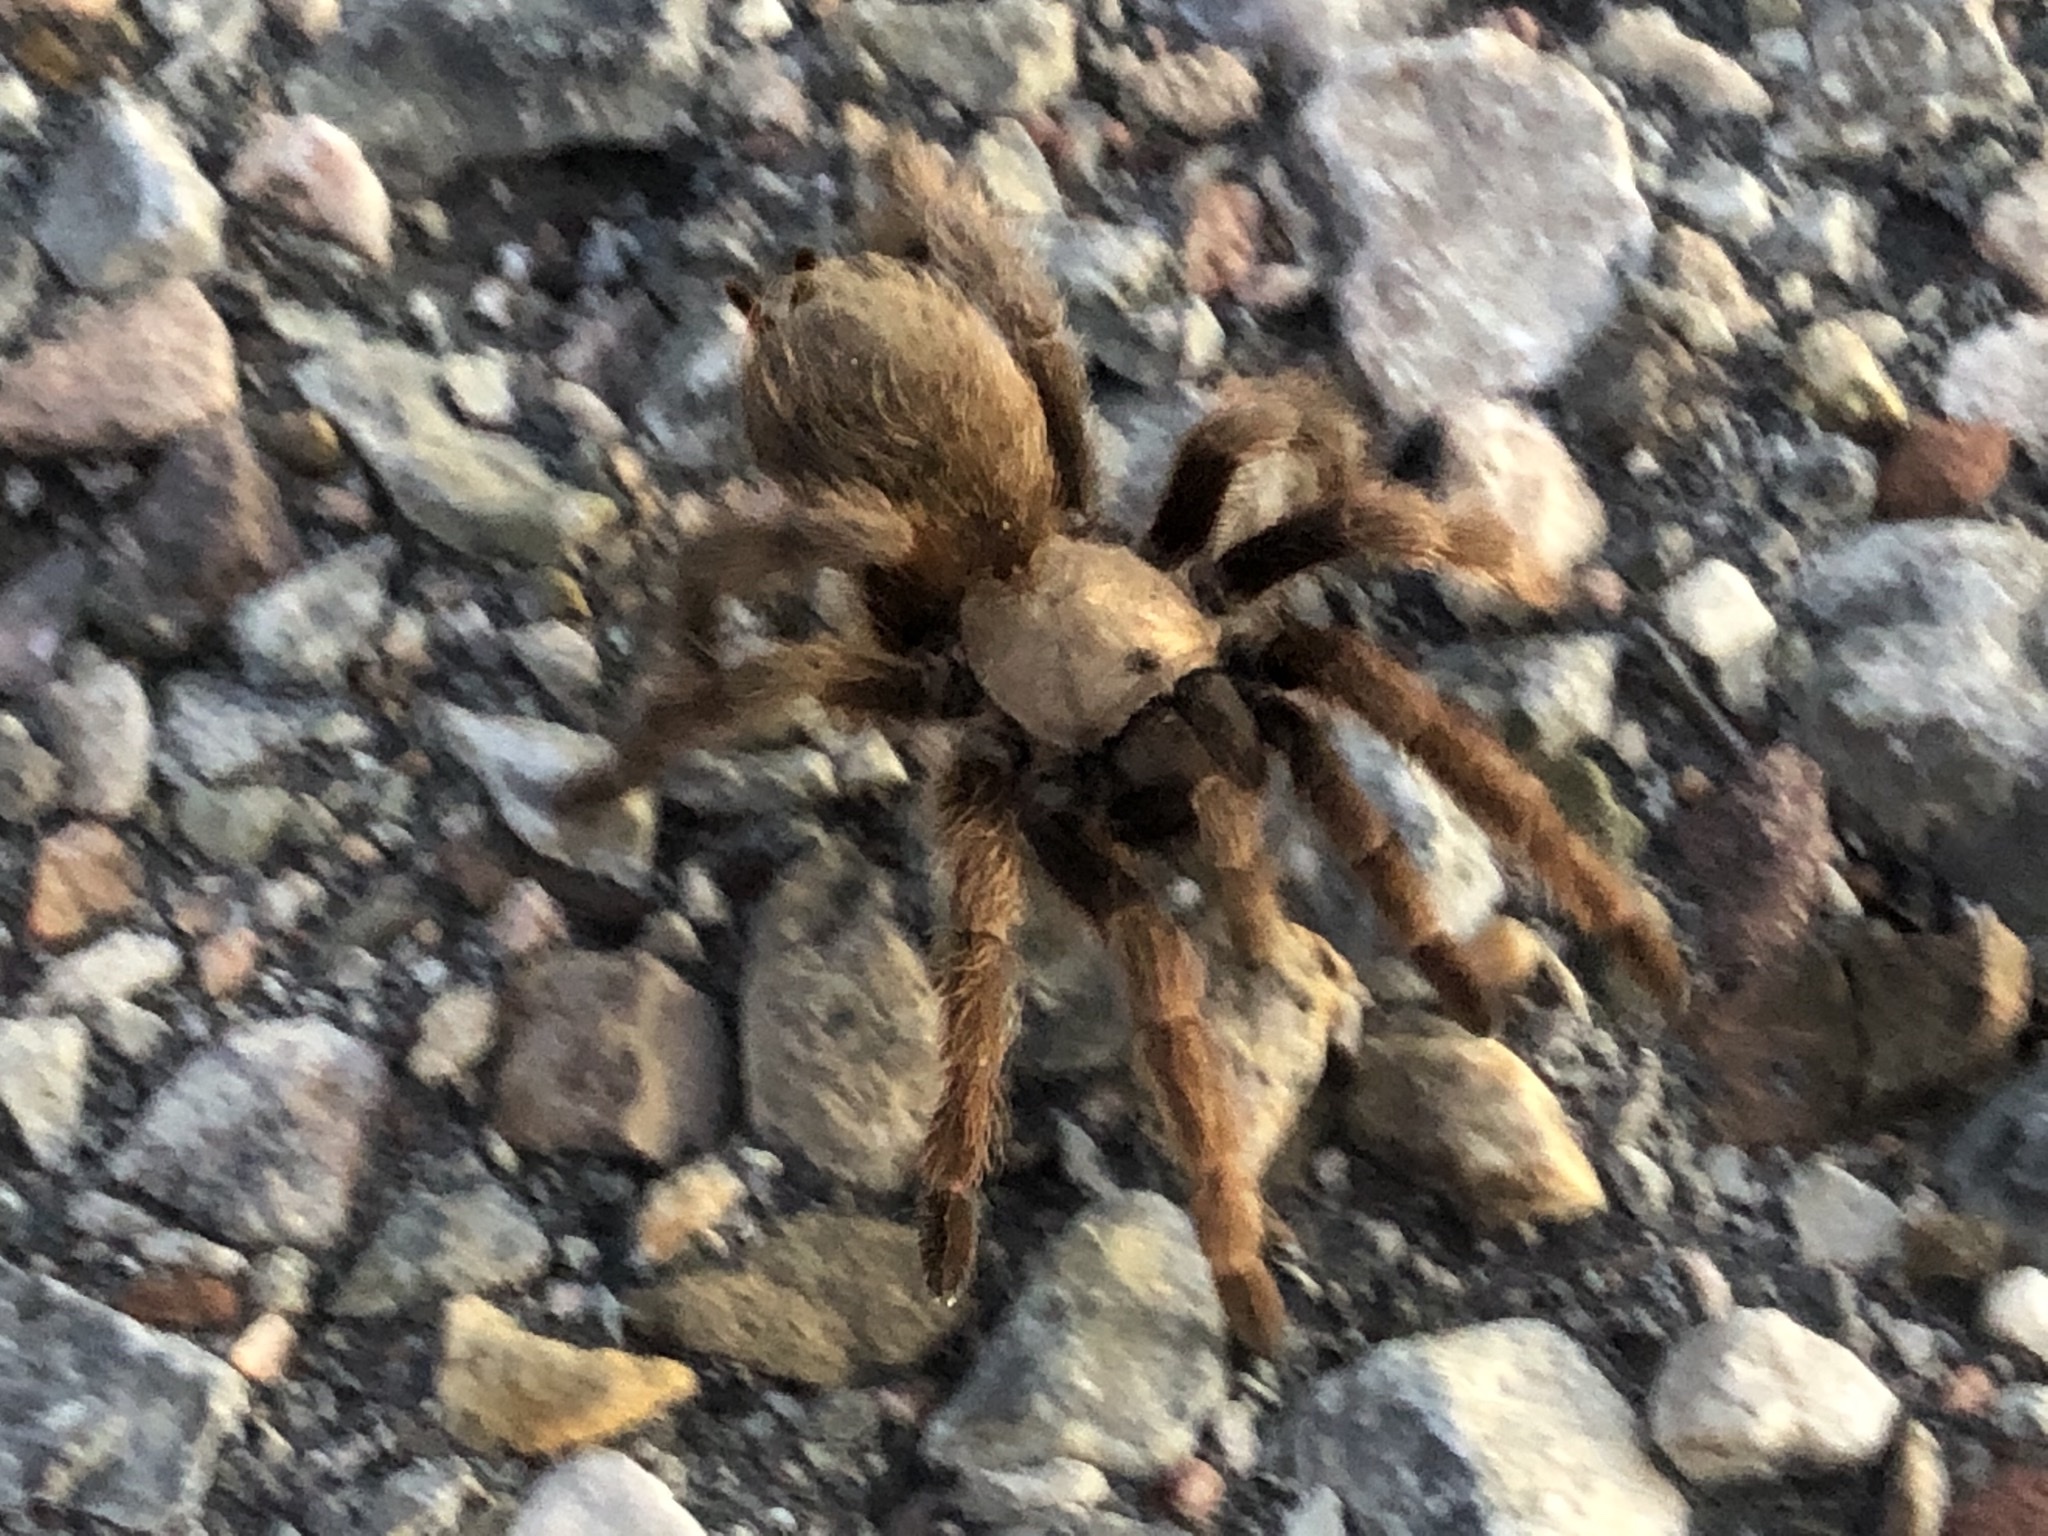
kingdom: Animalia
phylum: Arthropoda
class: Arachnida
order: Araneae
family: Theraphosidae
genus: Aphonopelma
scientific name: Aphonopelma hentzi
